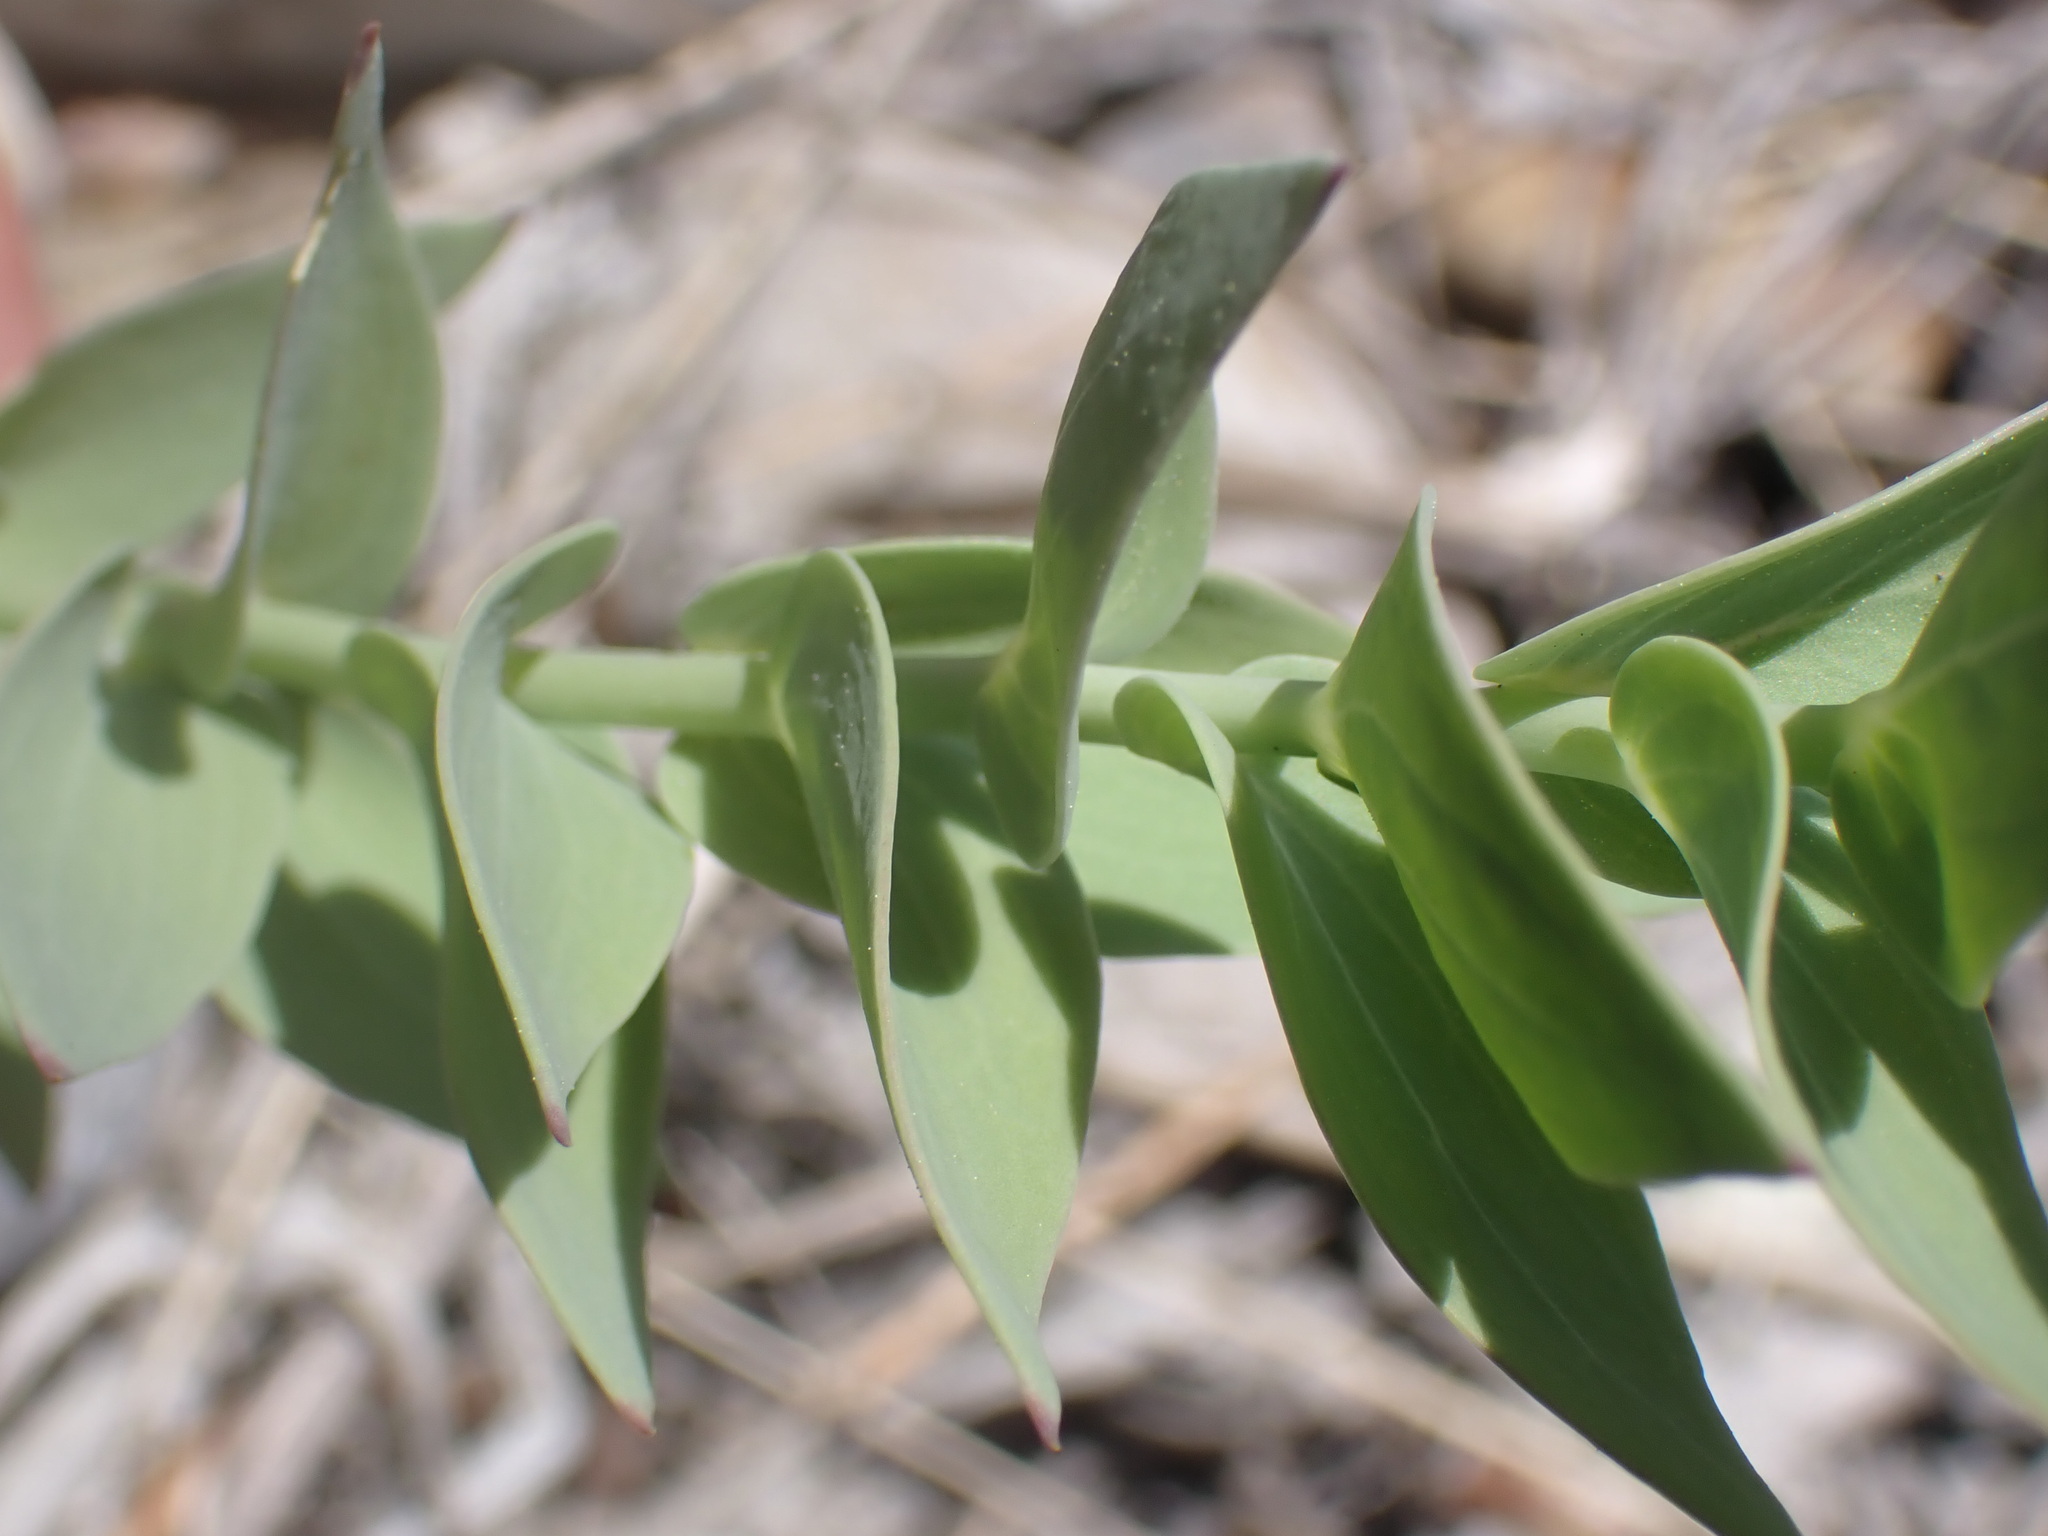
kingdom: Plantae
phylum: Tracheophyta
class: Magnoliopsida
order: Lamiales
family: Plantaginaceae
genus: Linaria
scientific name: Linaria dalmatica
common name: Dalmatian toadflax
